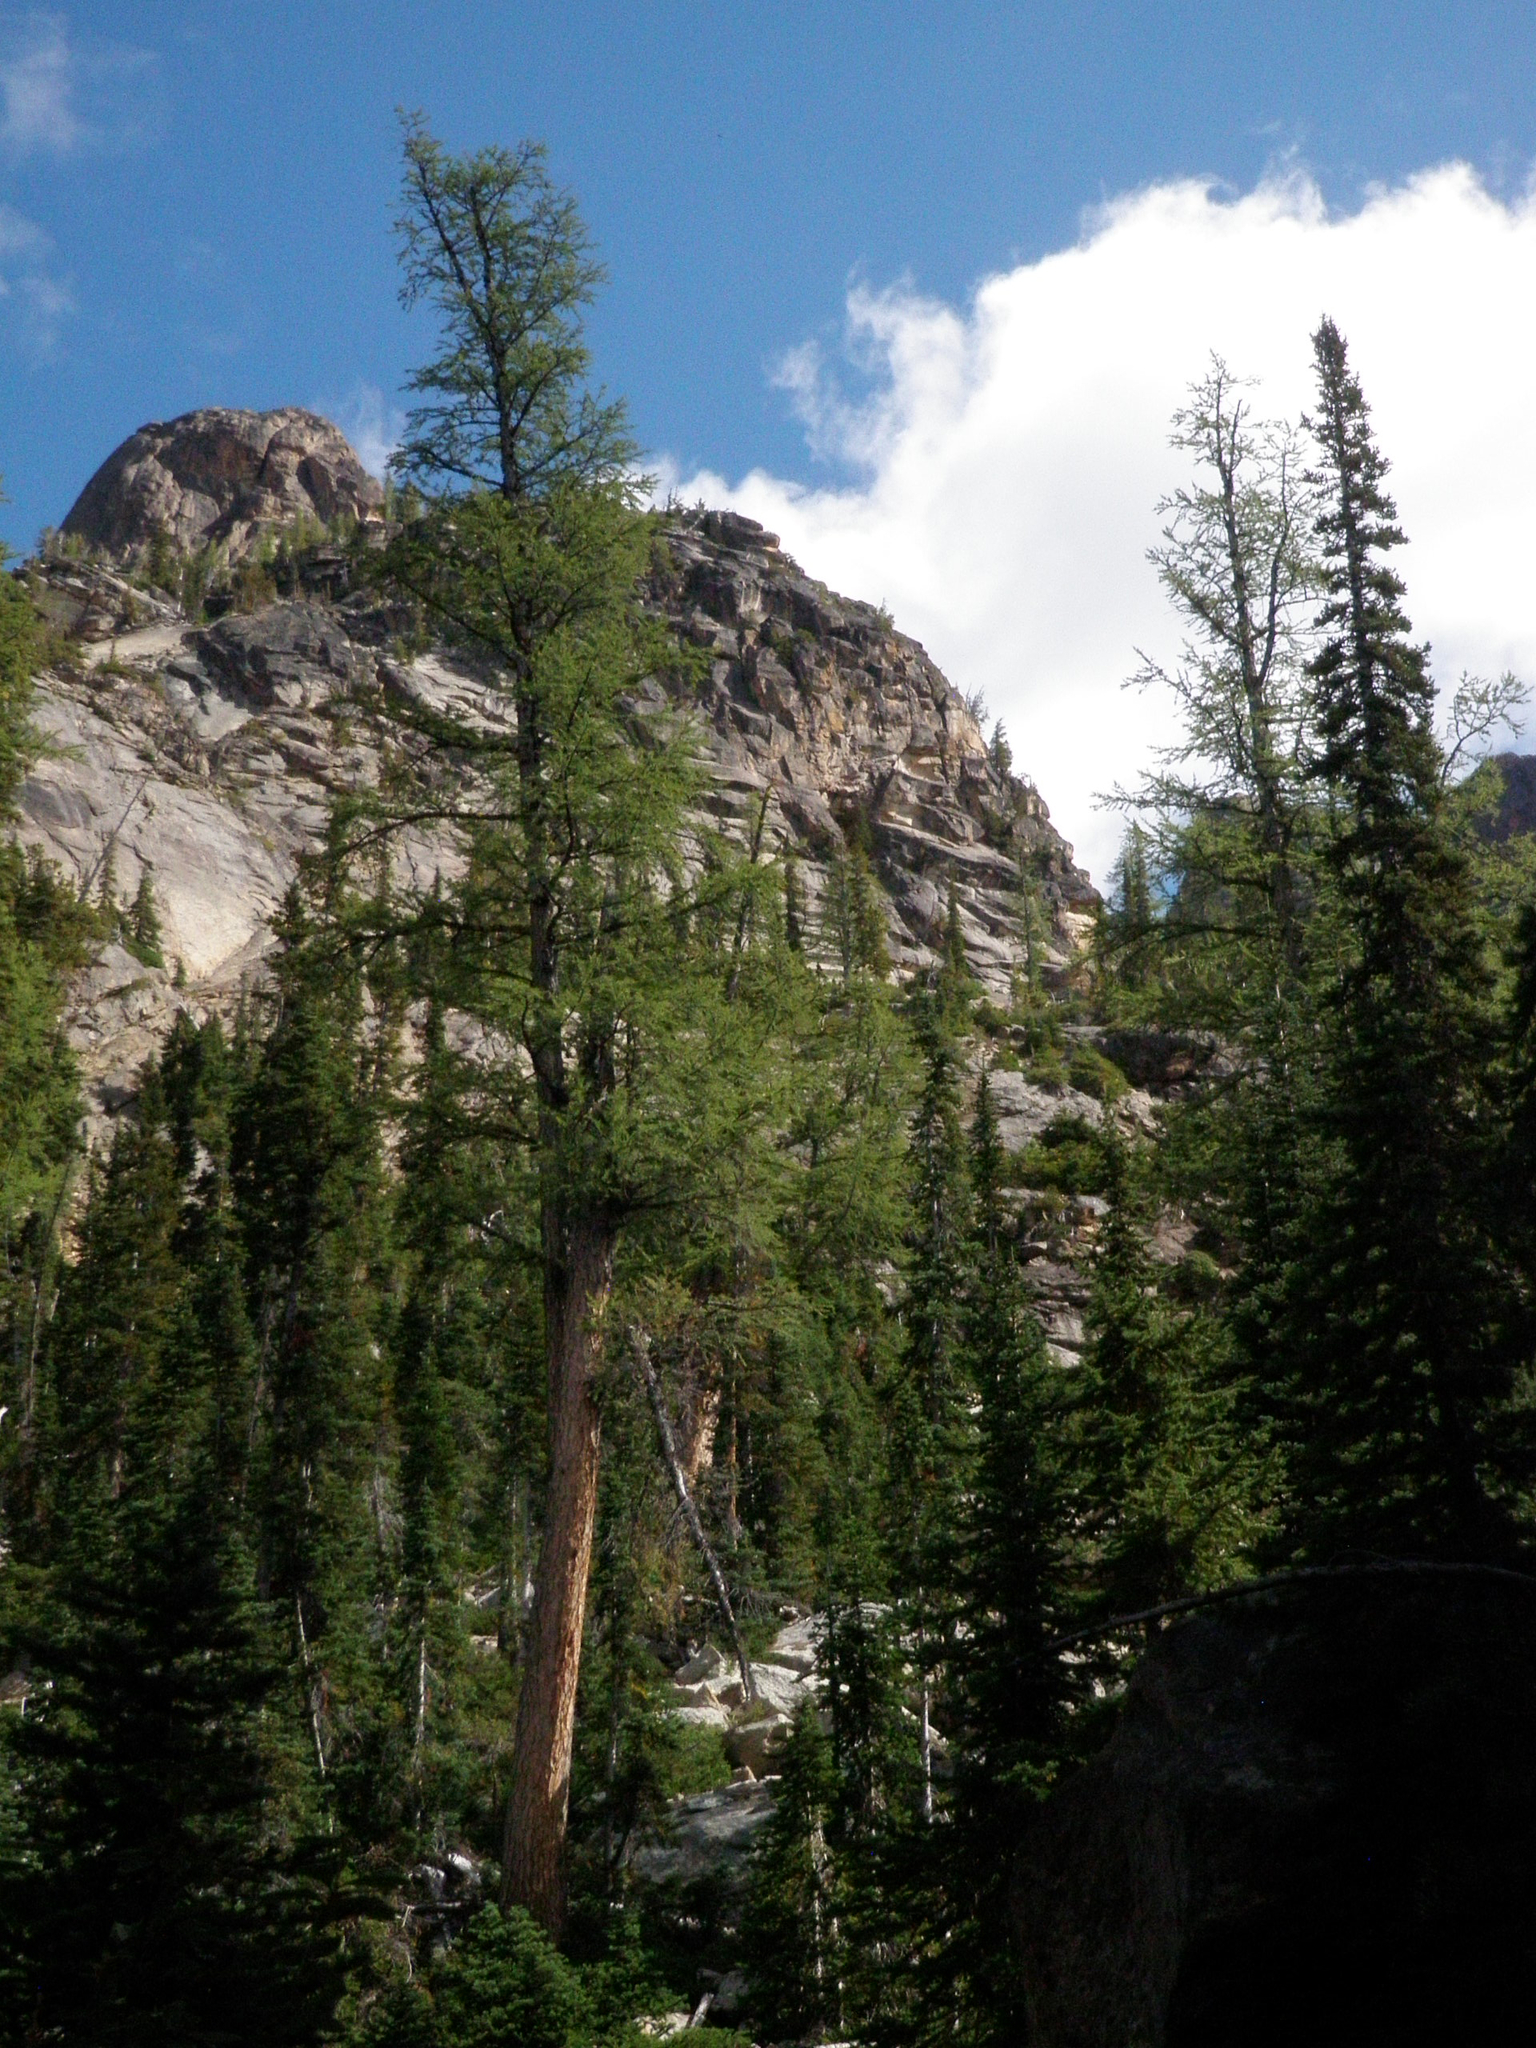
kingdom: Plantae
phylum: Tracheophyta
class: Pinopsida
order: Pinales
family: Pinaceae
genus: Larix
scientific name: Larix lyallii
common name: Alpine larch
